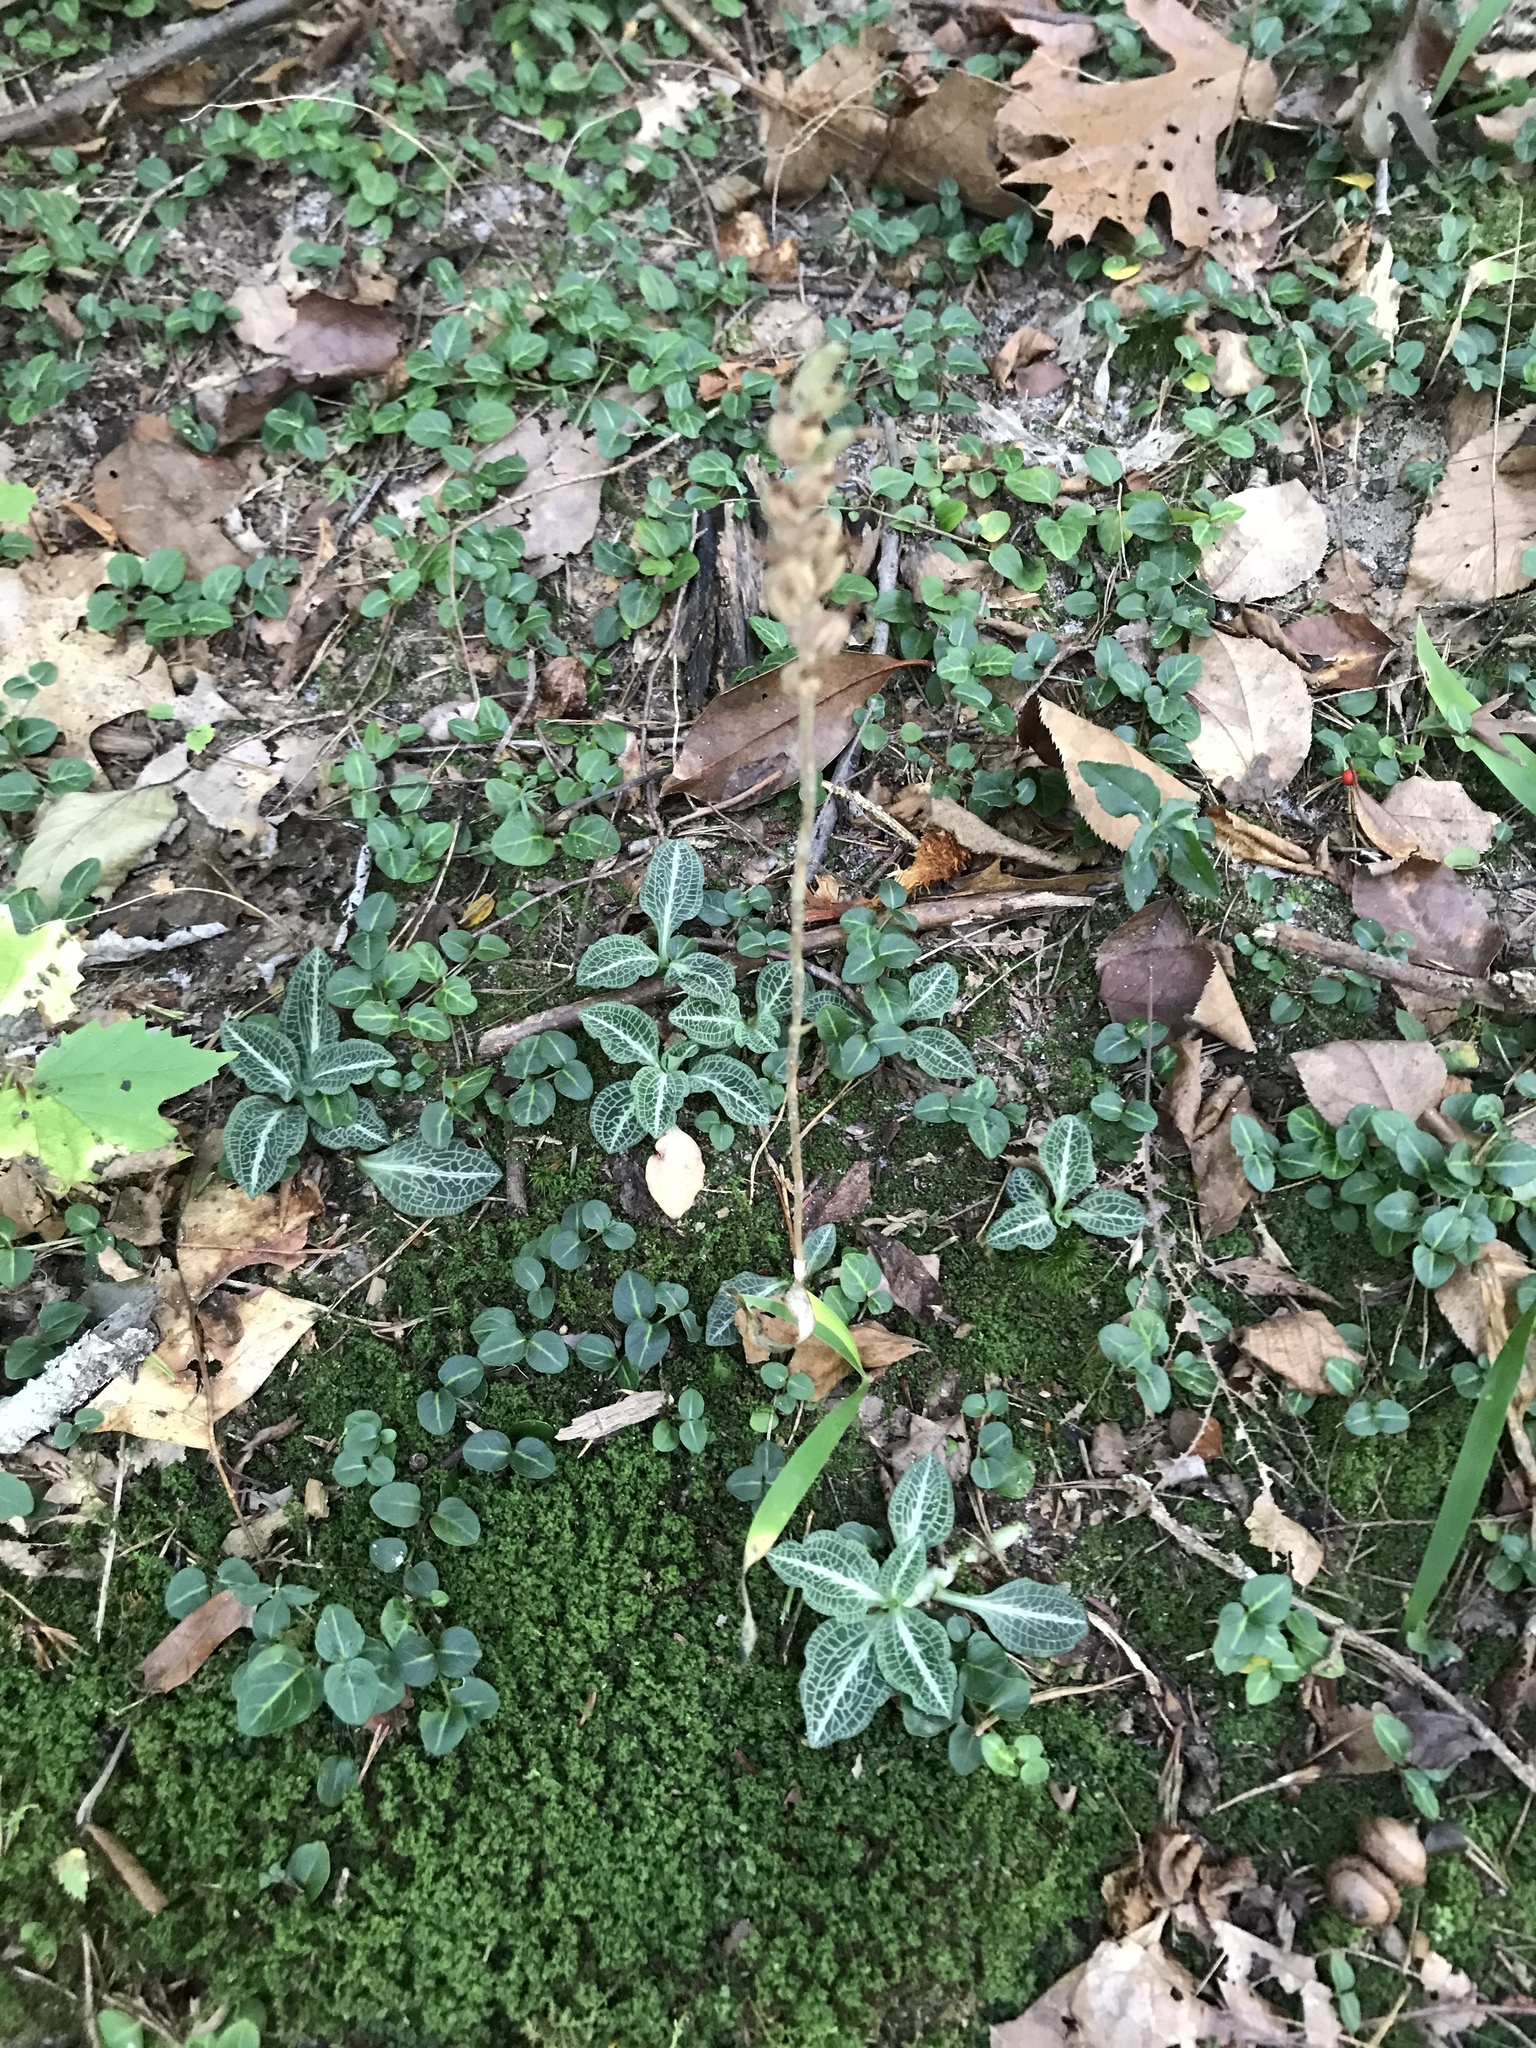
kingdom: Plantae
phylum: Tracheophyta
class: Liliopsida
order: Asparagales
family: Orchidaceae
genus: Goodyera
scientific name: Goodyera pubescens
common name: Downy rattlesnake-plantain
